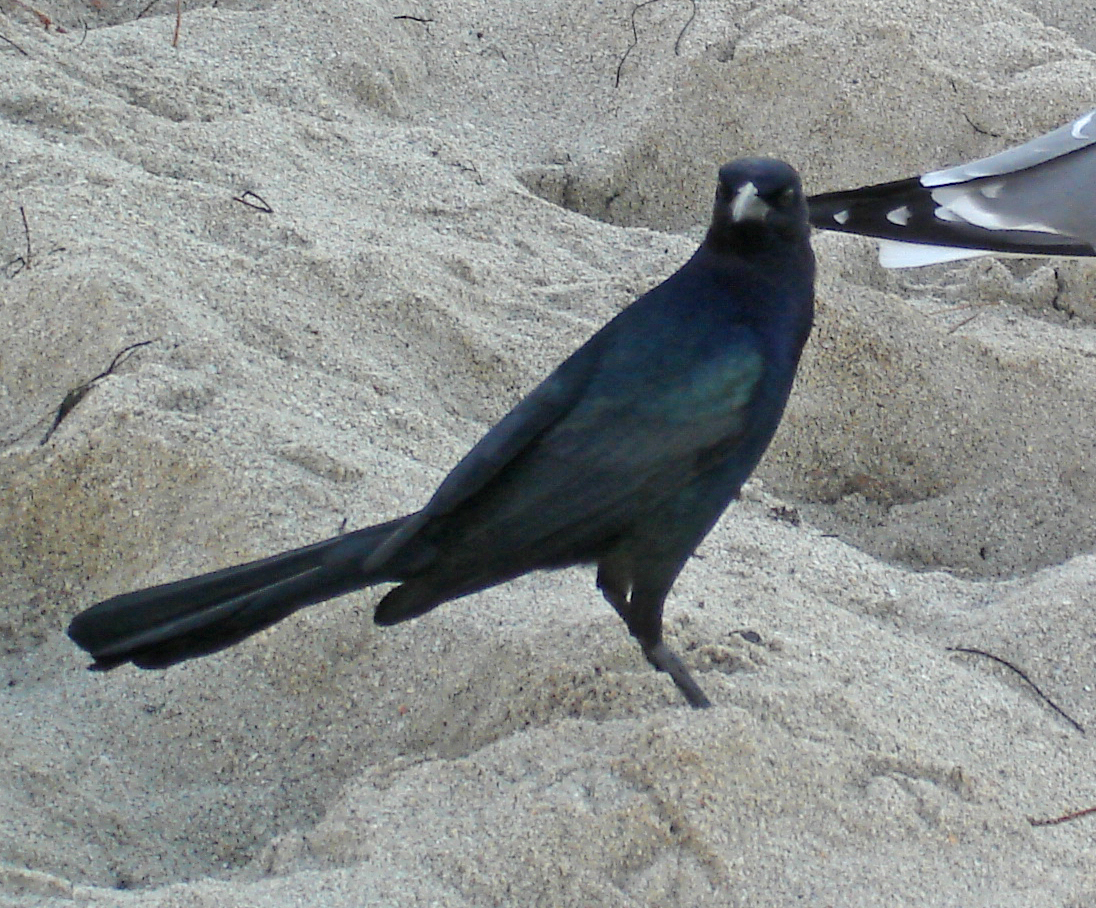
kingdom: Animalia
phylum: Chordata
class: Aves
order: Passeriformes
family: Icteridae
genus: Quiscalus
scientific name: Quiscalus major
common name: Boat-tailed grackle
